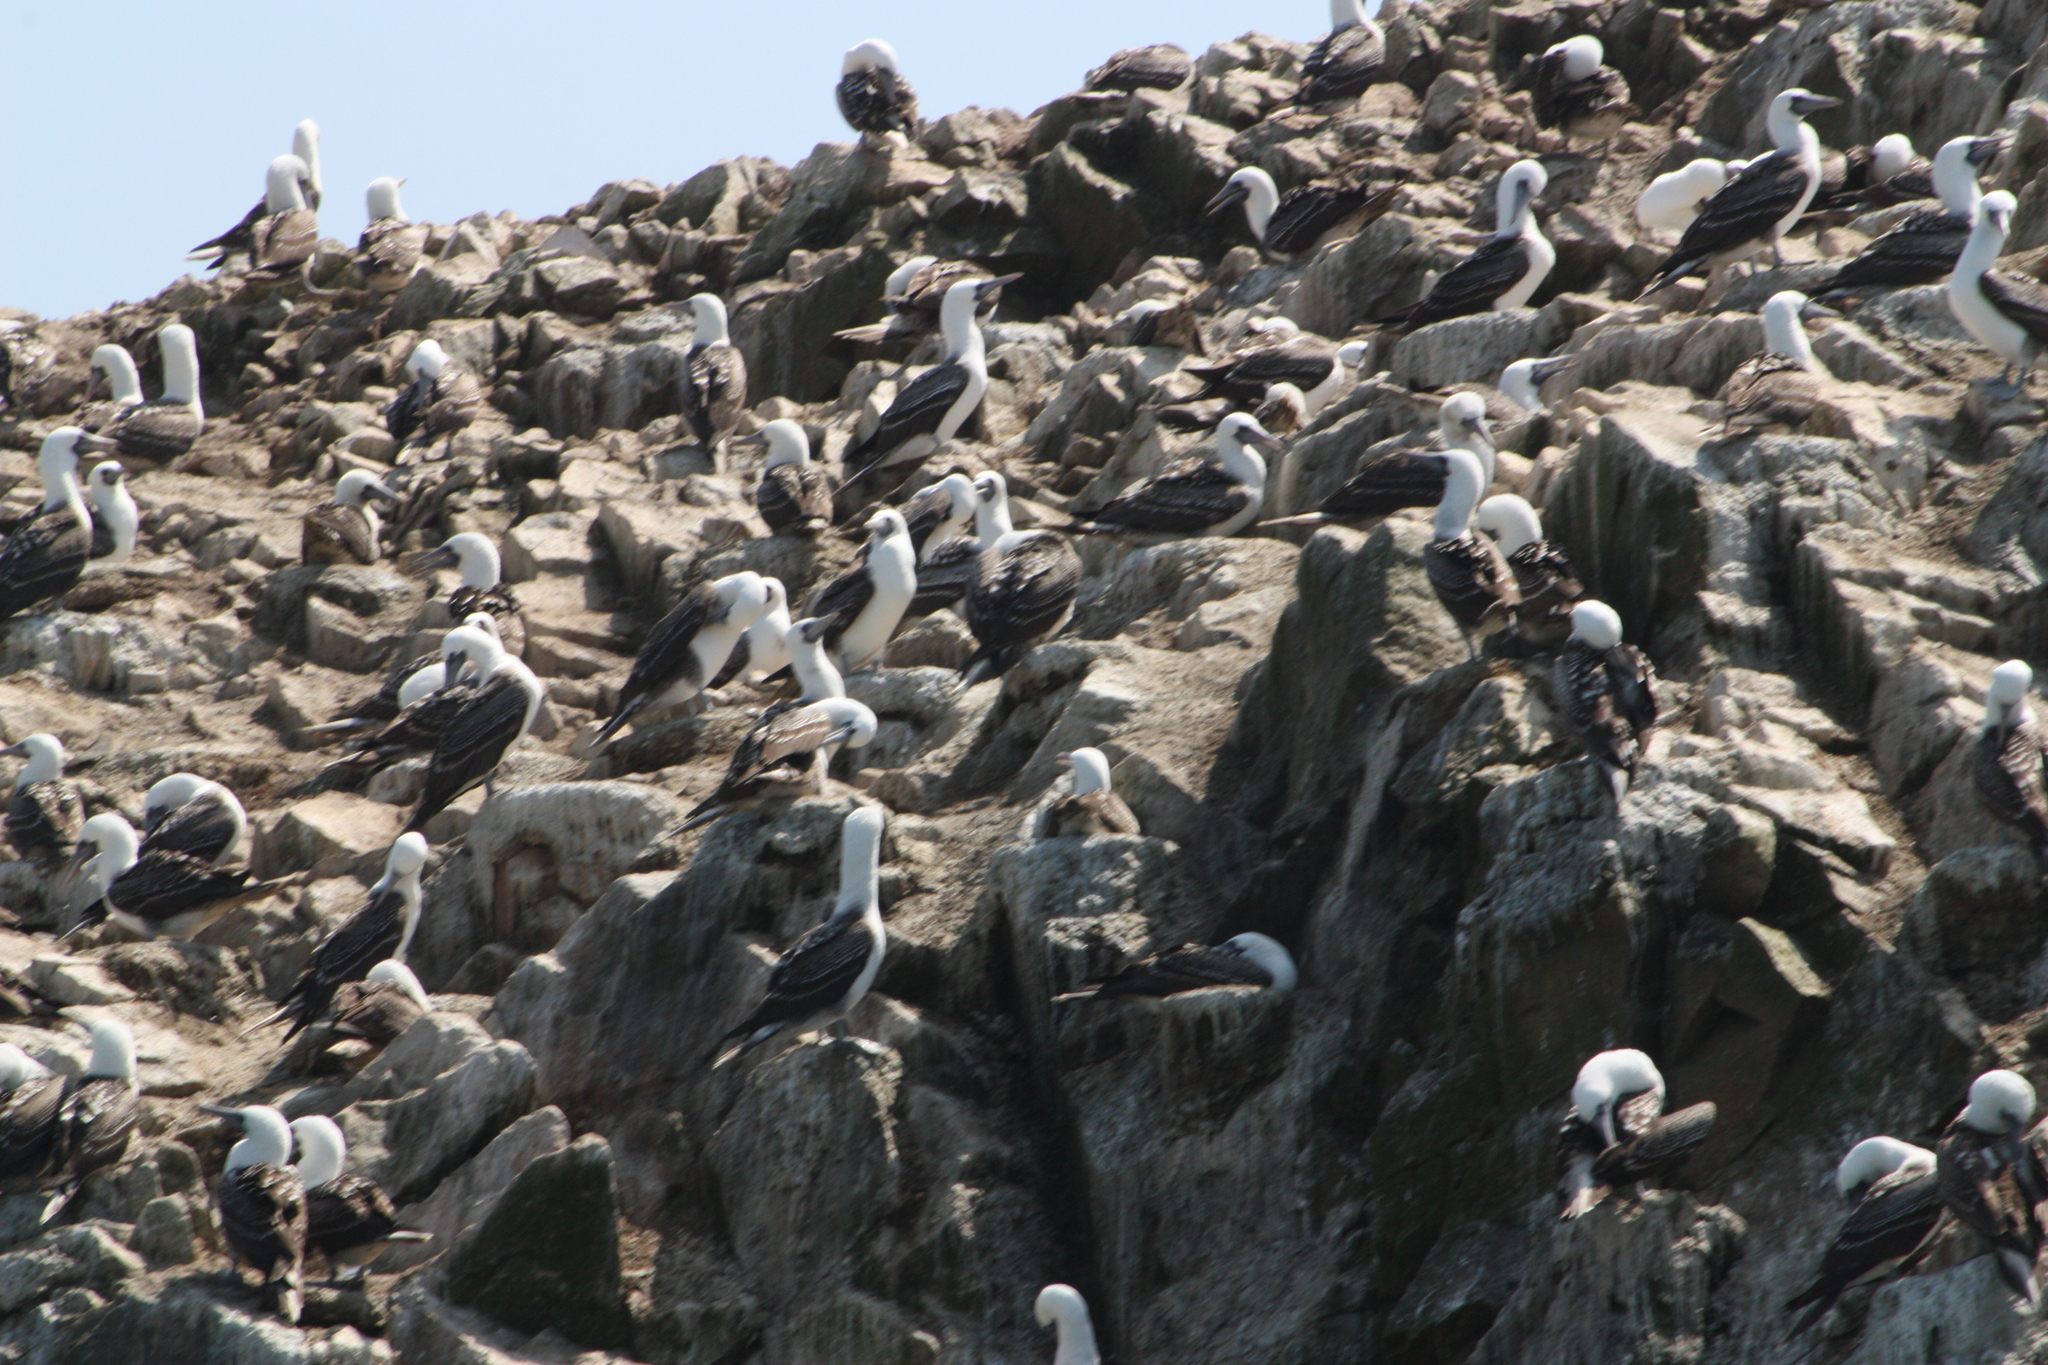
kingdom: Animalia
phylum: Chordata
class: Aves
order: Suliformes
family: Sulidae
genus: Sula
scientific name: Sula variegata
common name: Peruvian booby
